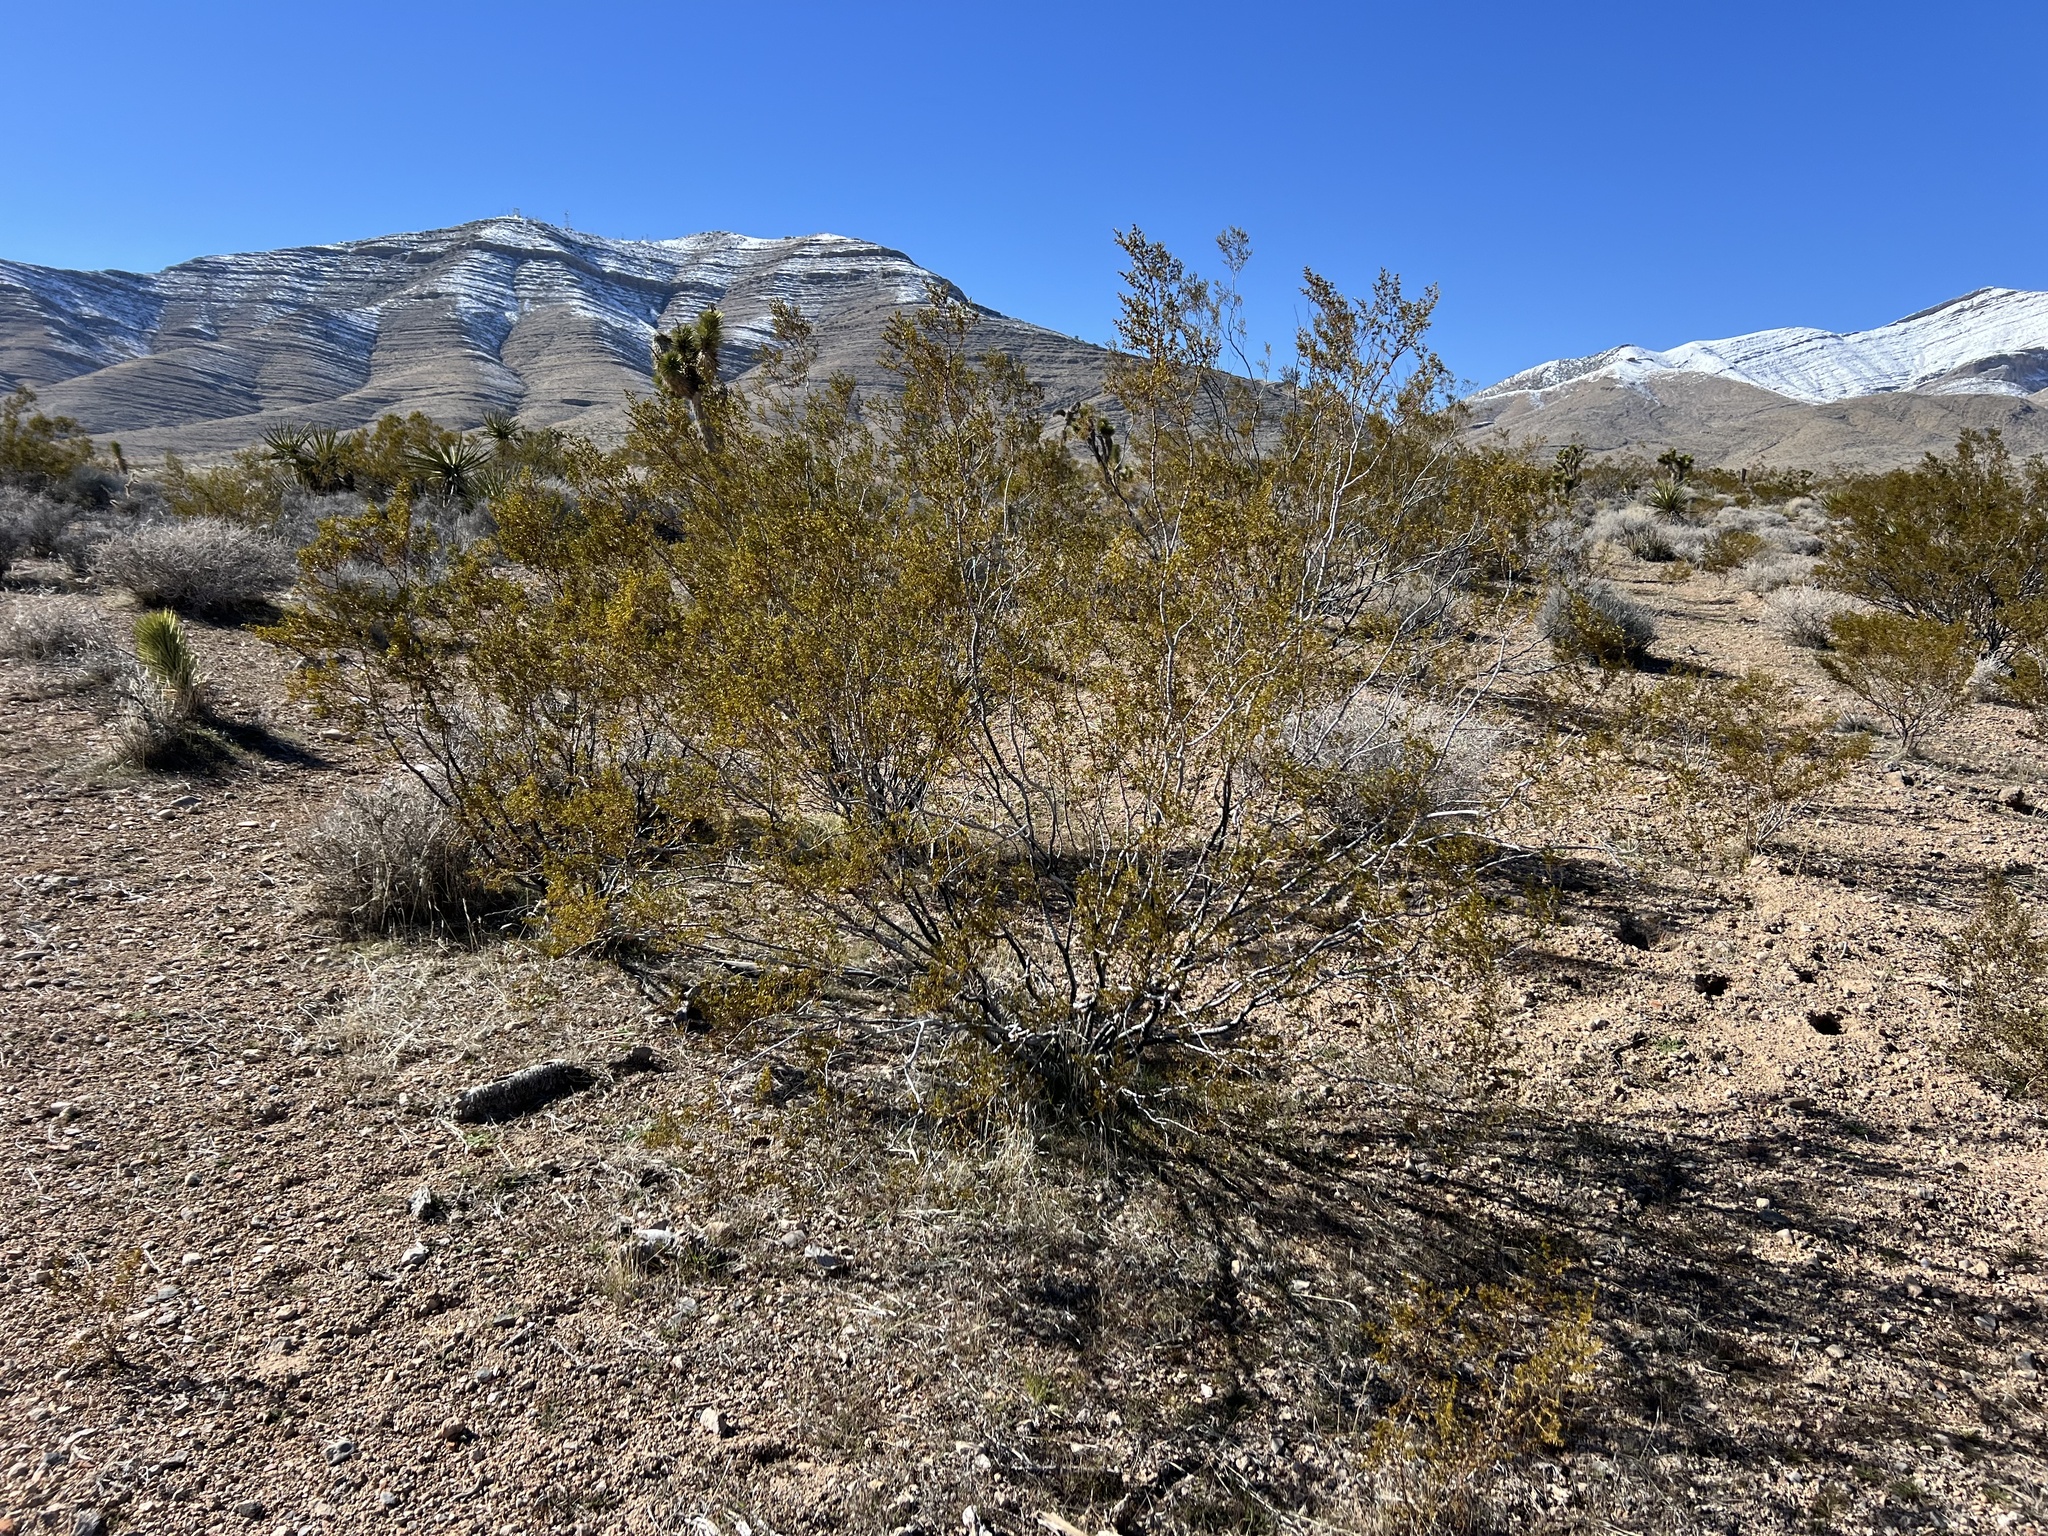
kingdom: Plantae
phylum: Tracheophyta
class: Magnoliopsida
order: Zygophyllales
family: Zygophyllaceae
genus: Larrea
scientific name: Larrea tridentata
